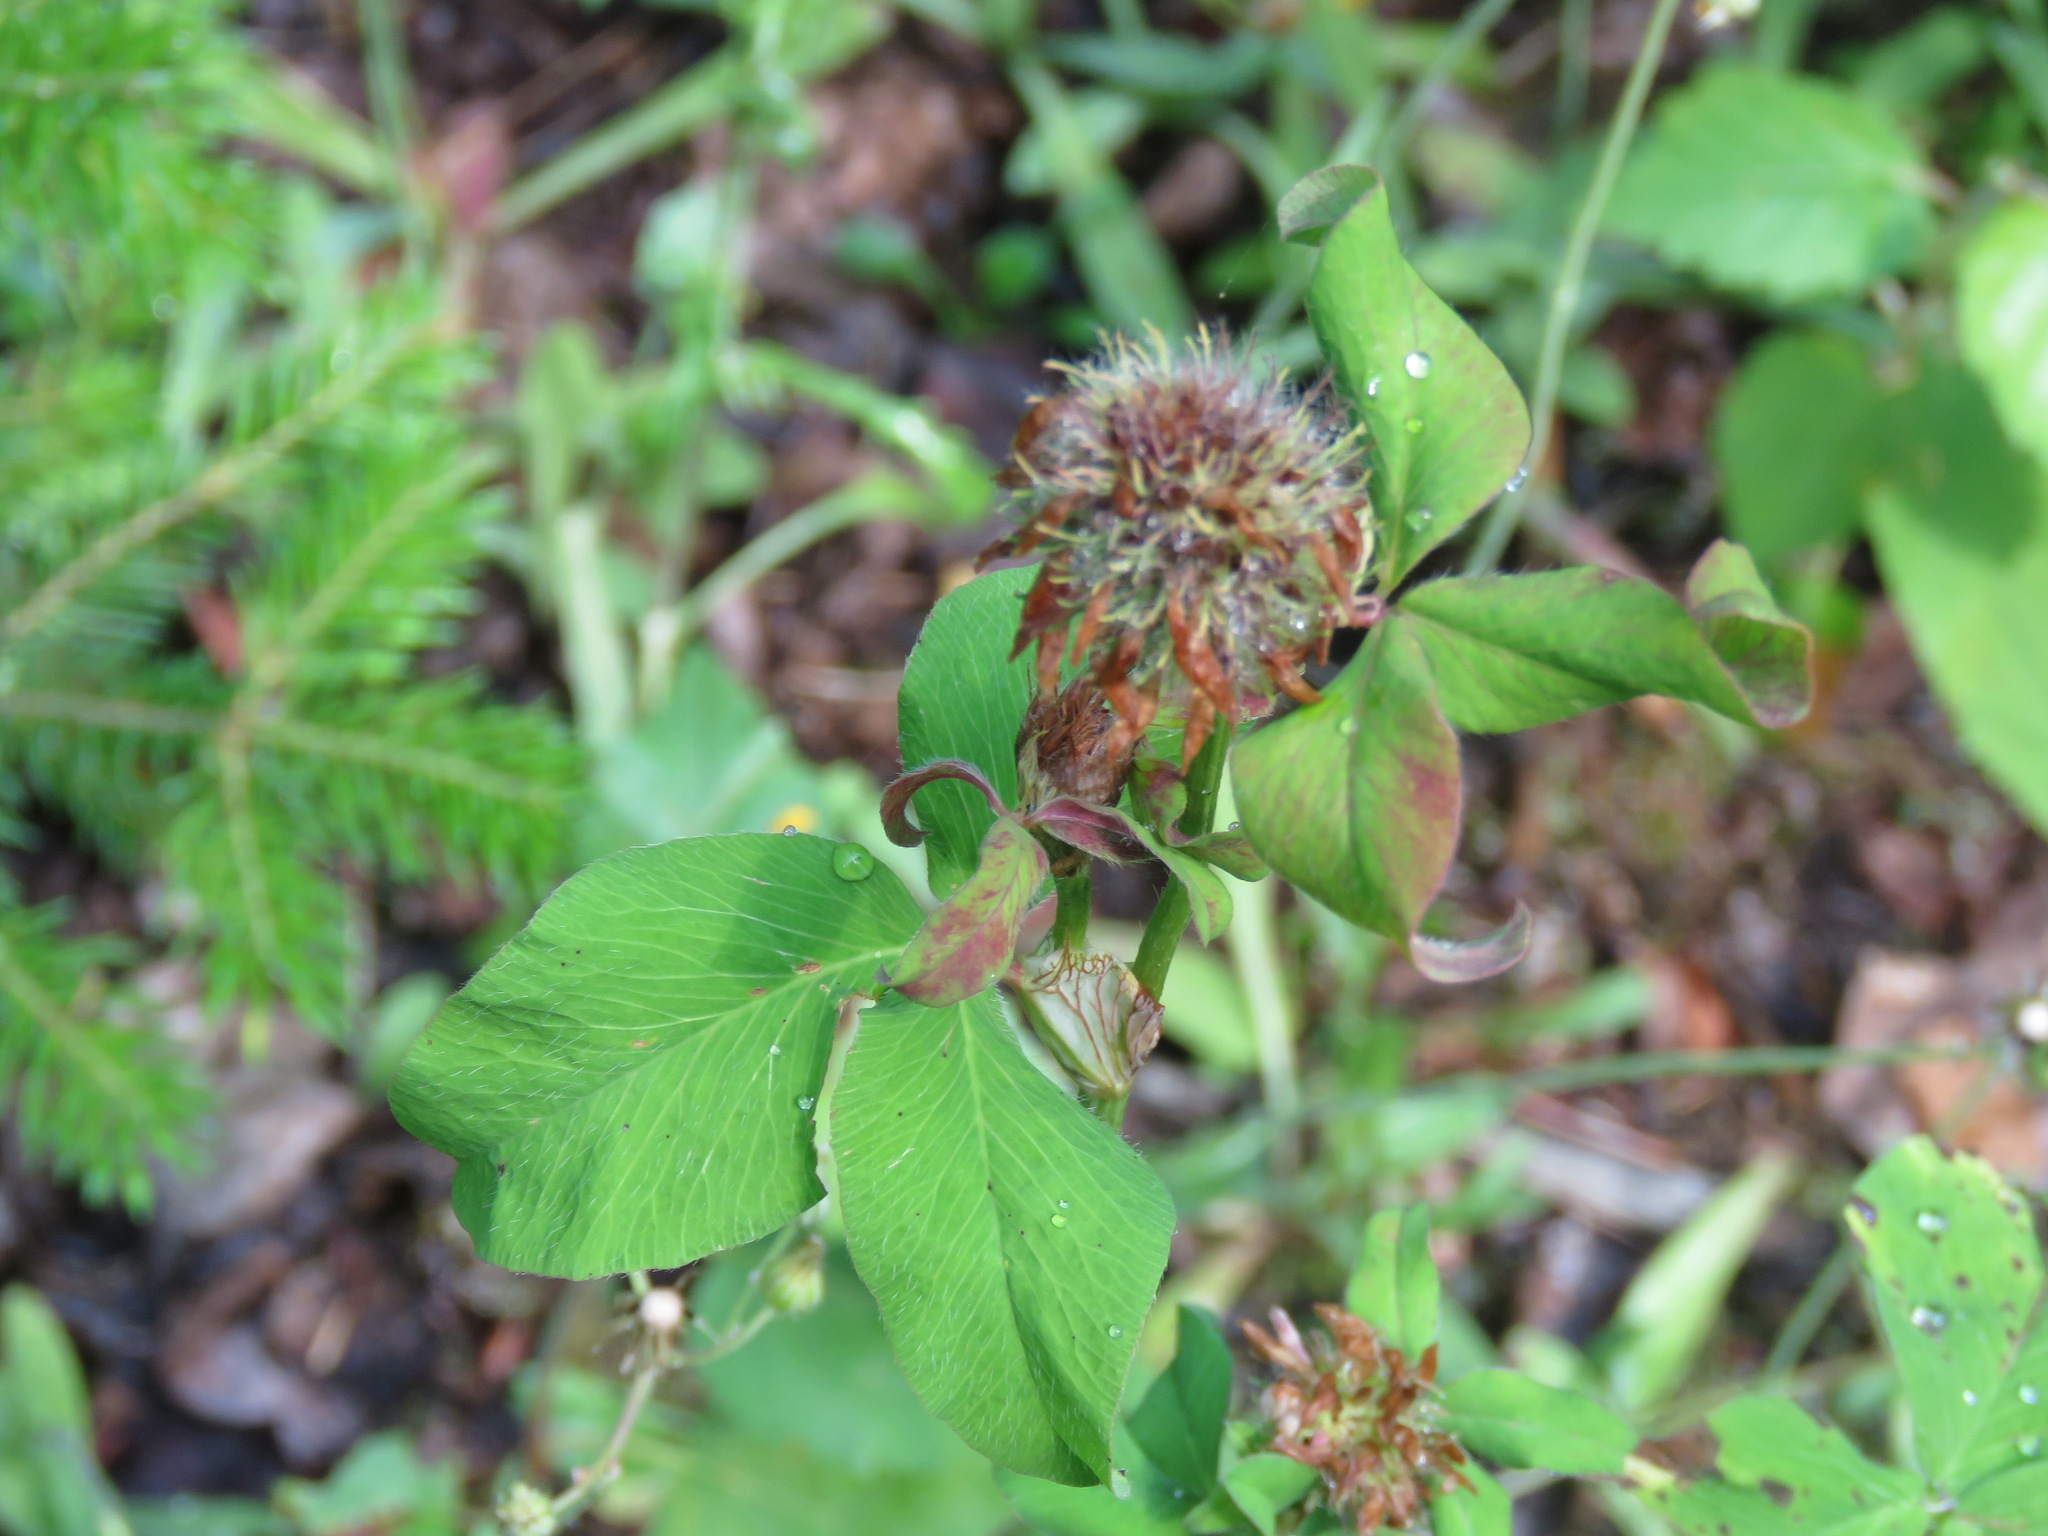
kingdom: Plantae
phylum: Tracheophyta
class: Magnoliopsida
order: Fabales
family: Fabaceae
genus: Trifolium
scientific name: Trifolium pratense
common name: Red clover
